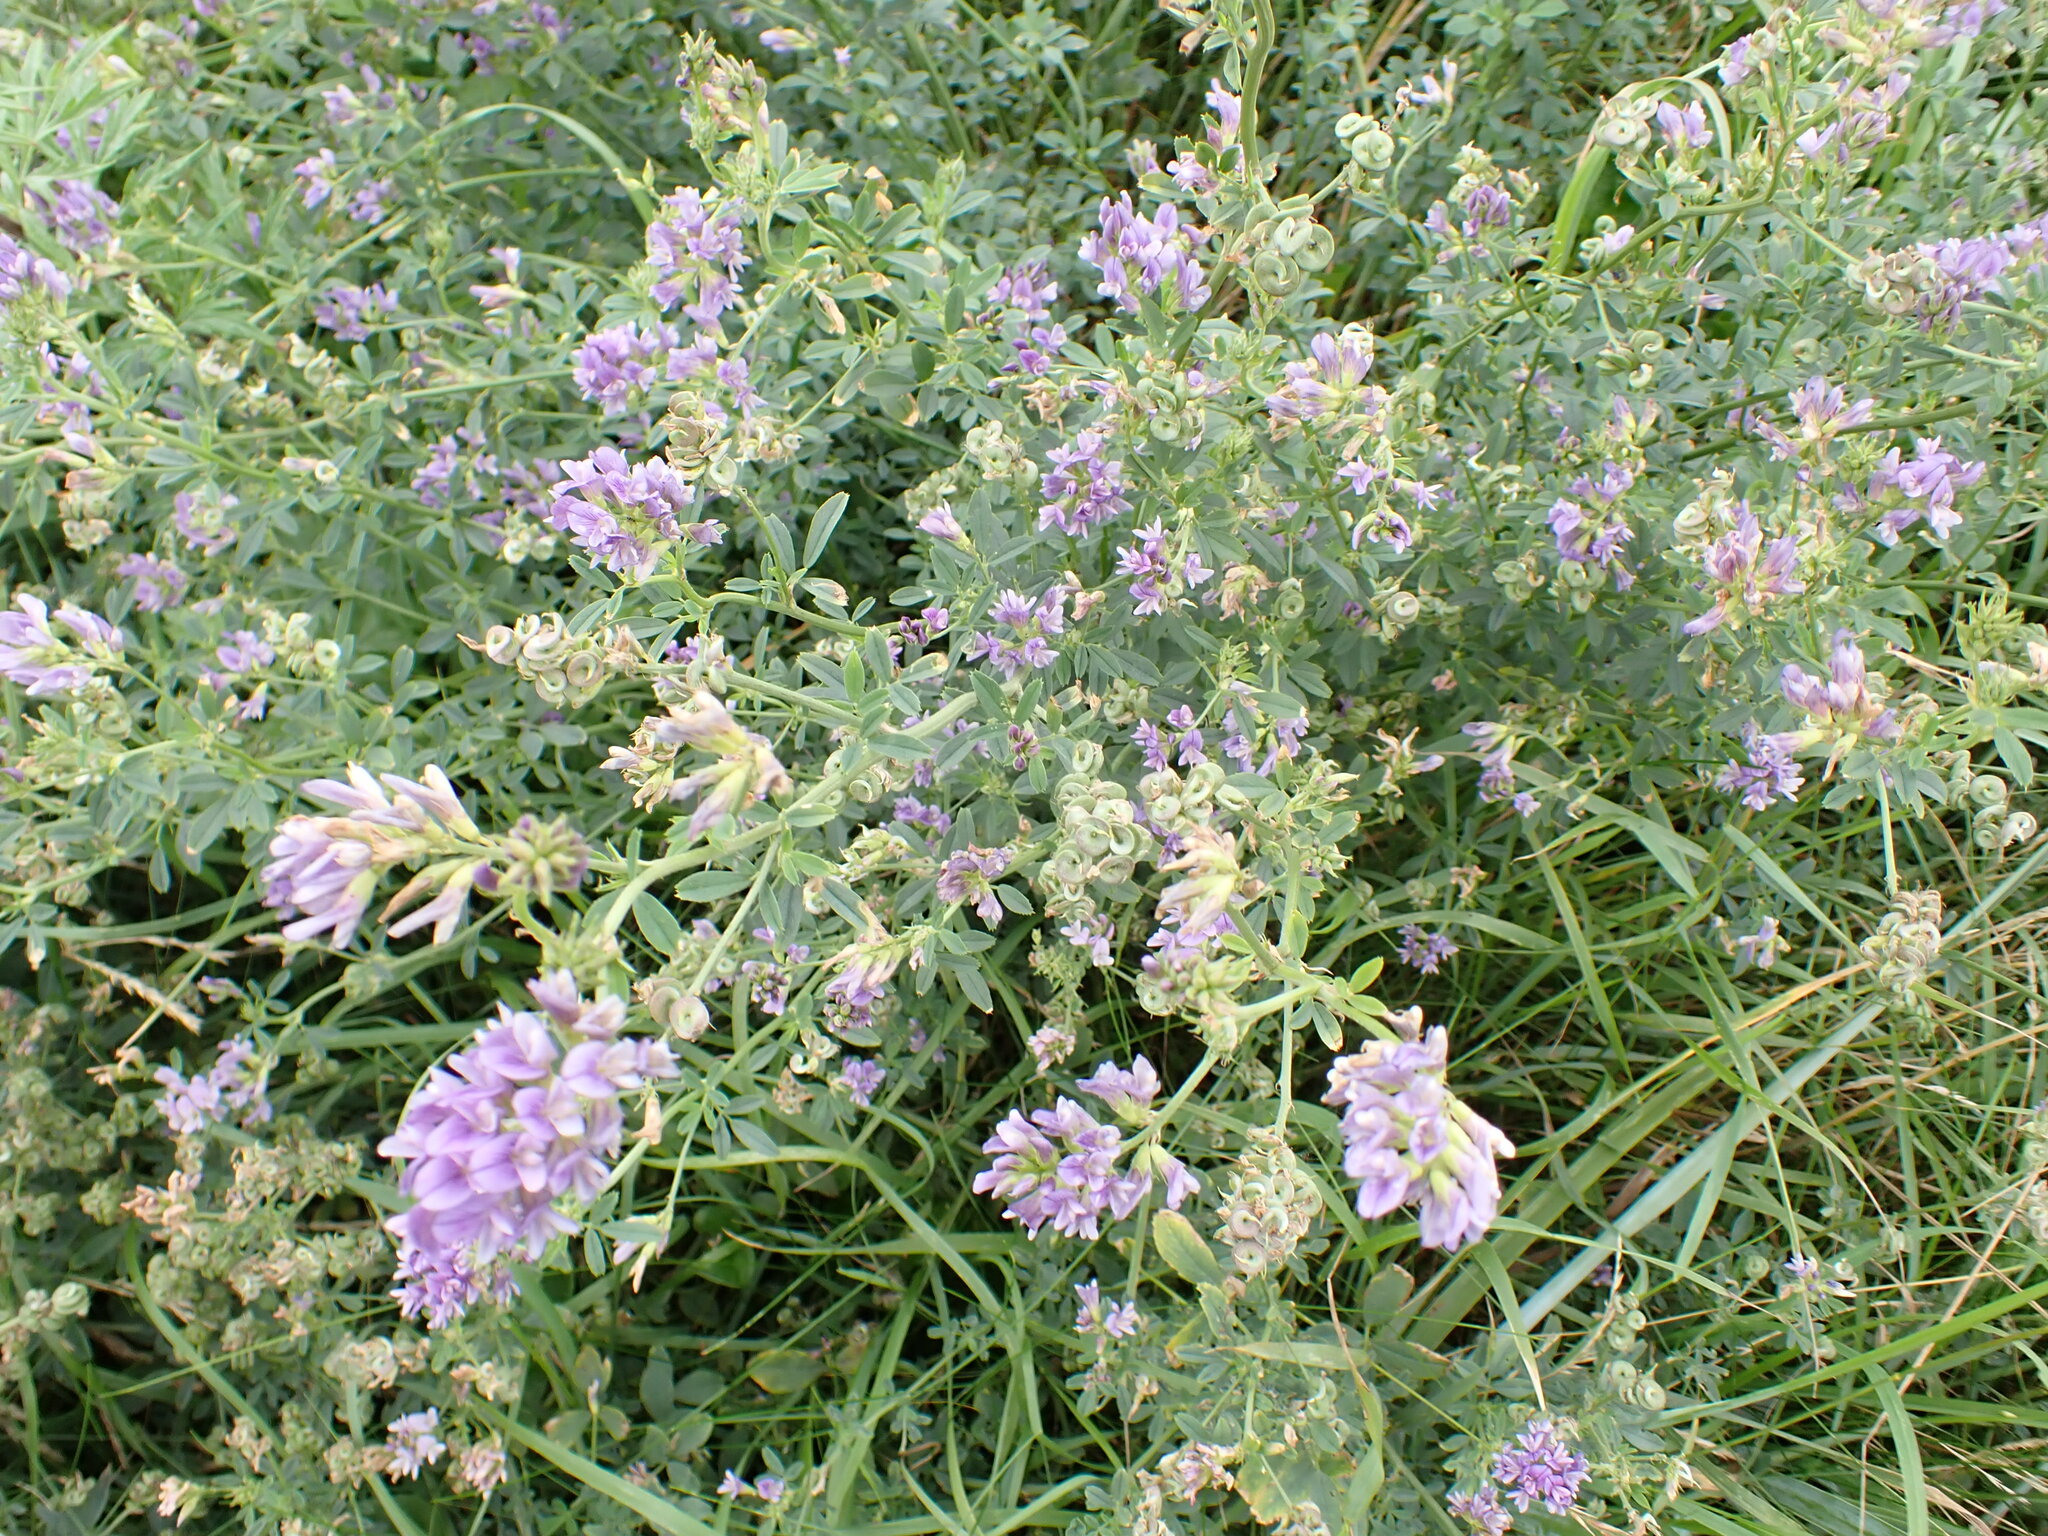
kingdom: Plantae
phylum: Tracheophyta
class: Magnoliopsida
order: Fabales
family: Fabaceae
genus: Medicago
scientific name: Medicago sativa
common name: Alfalfa
